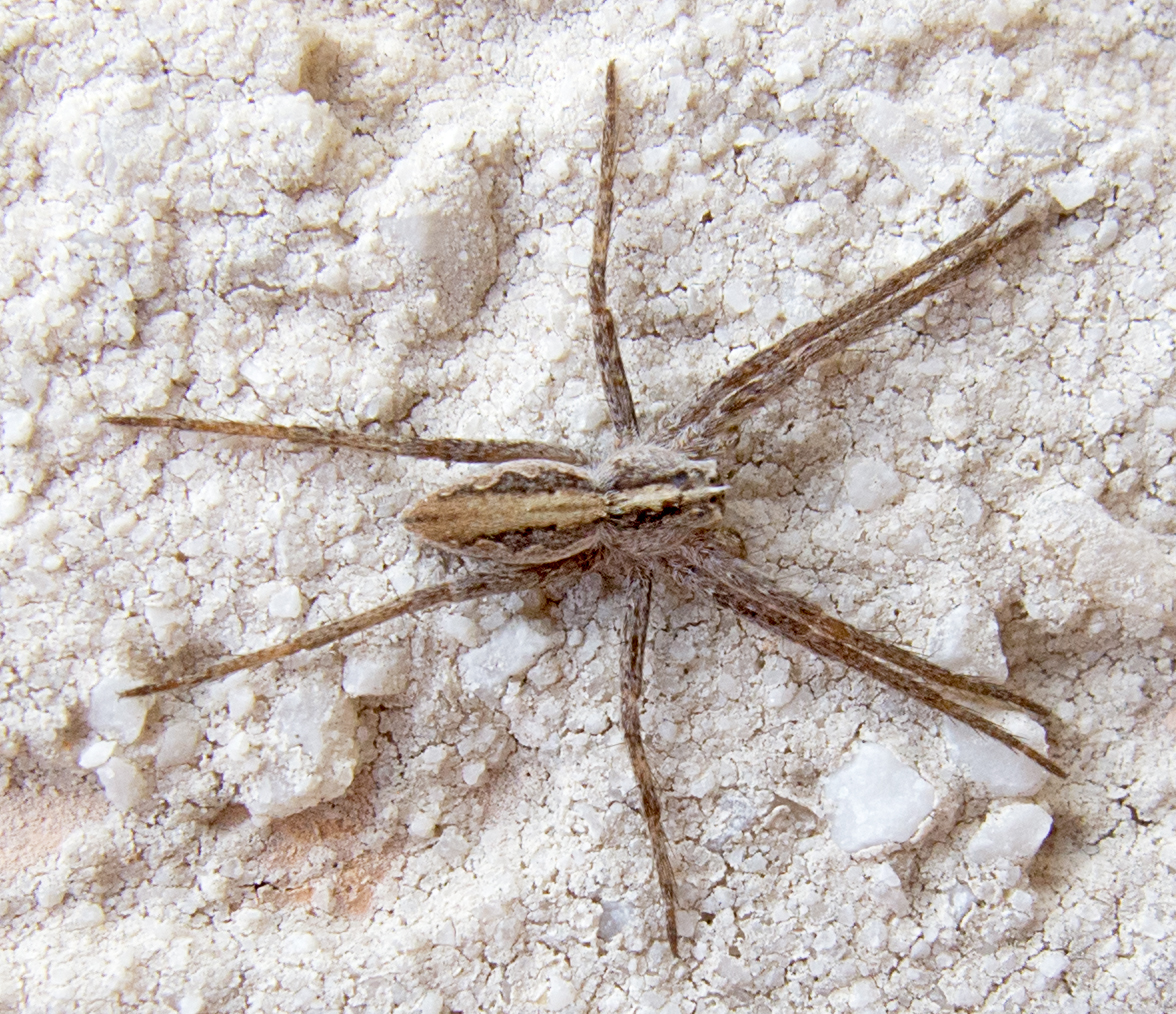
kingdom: Animalia
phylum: Arthropoda
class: Arachnida
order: Araneae
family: Pisauridae
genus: Pisaura
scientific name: Pisaura mirabilis
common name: Tent spider
